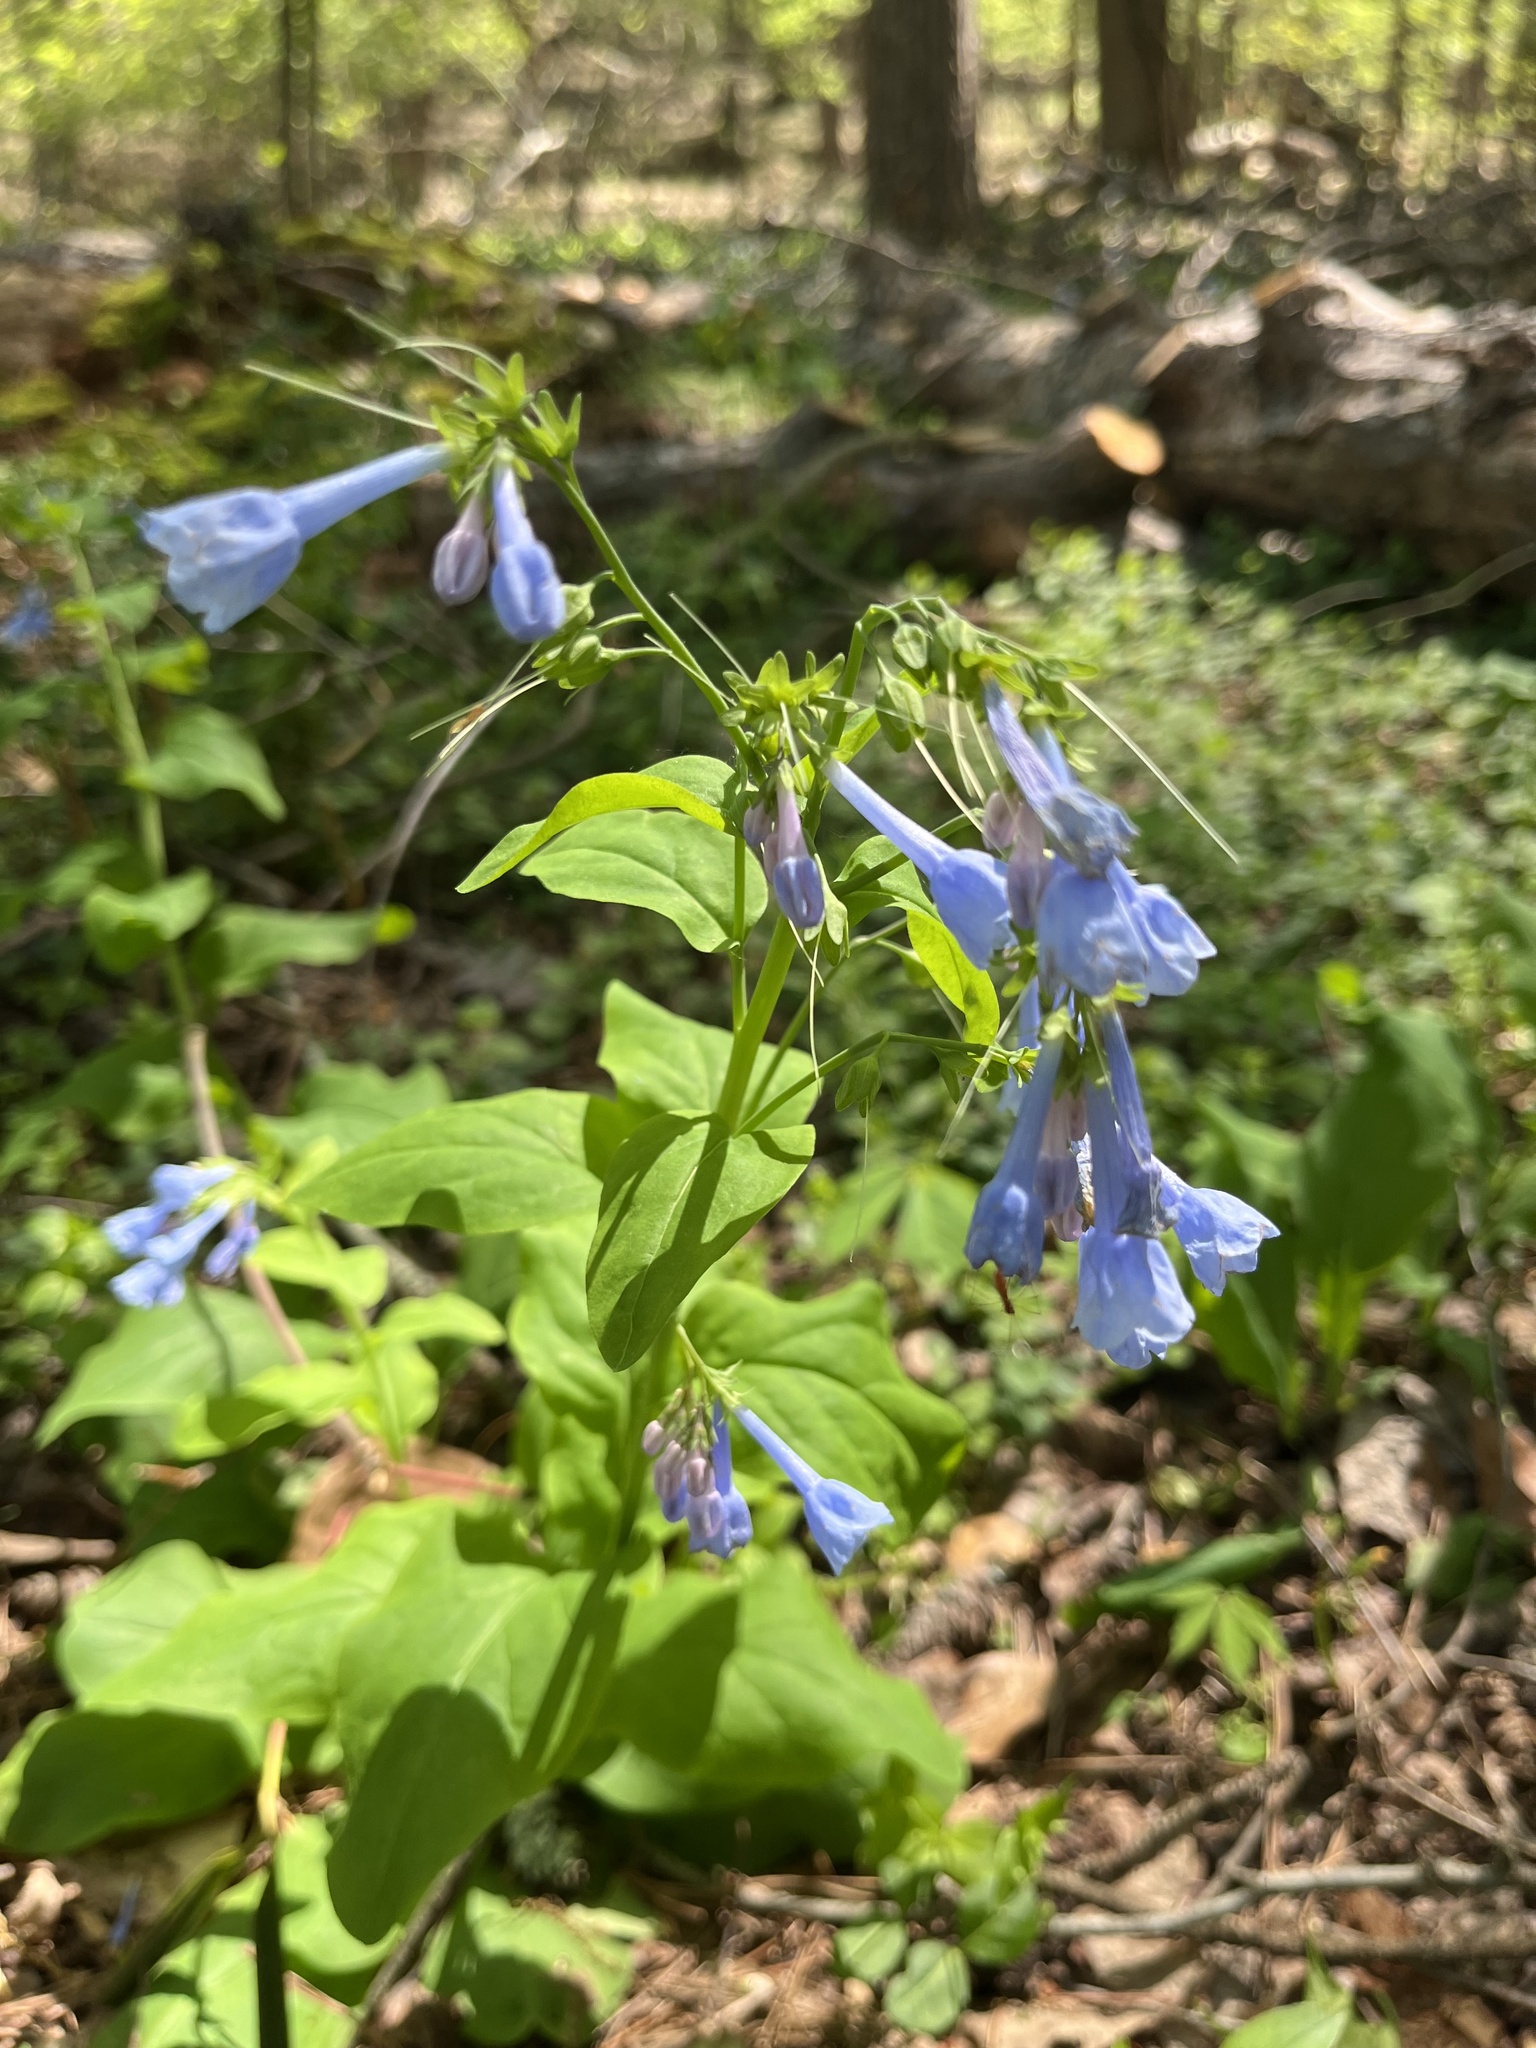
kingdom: Plantae
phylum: Tracheophyta
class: Magnoliopsida
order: Boraginales
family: Boraginaceae
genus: Mertensia
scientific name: Mertensia virginica
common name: Virginia bluebells
